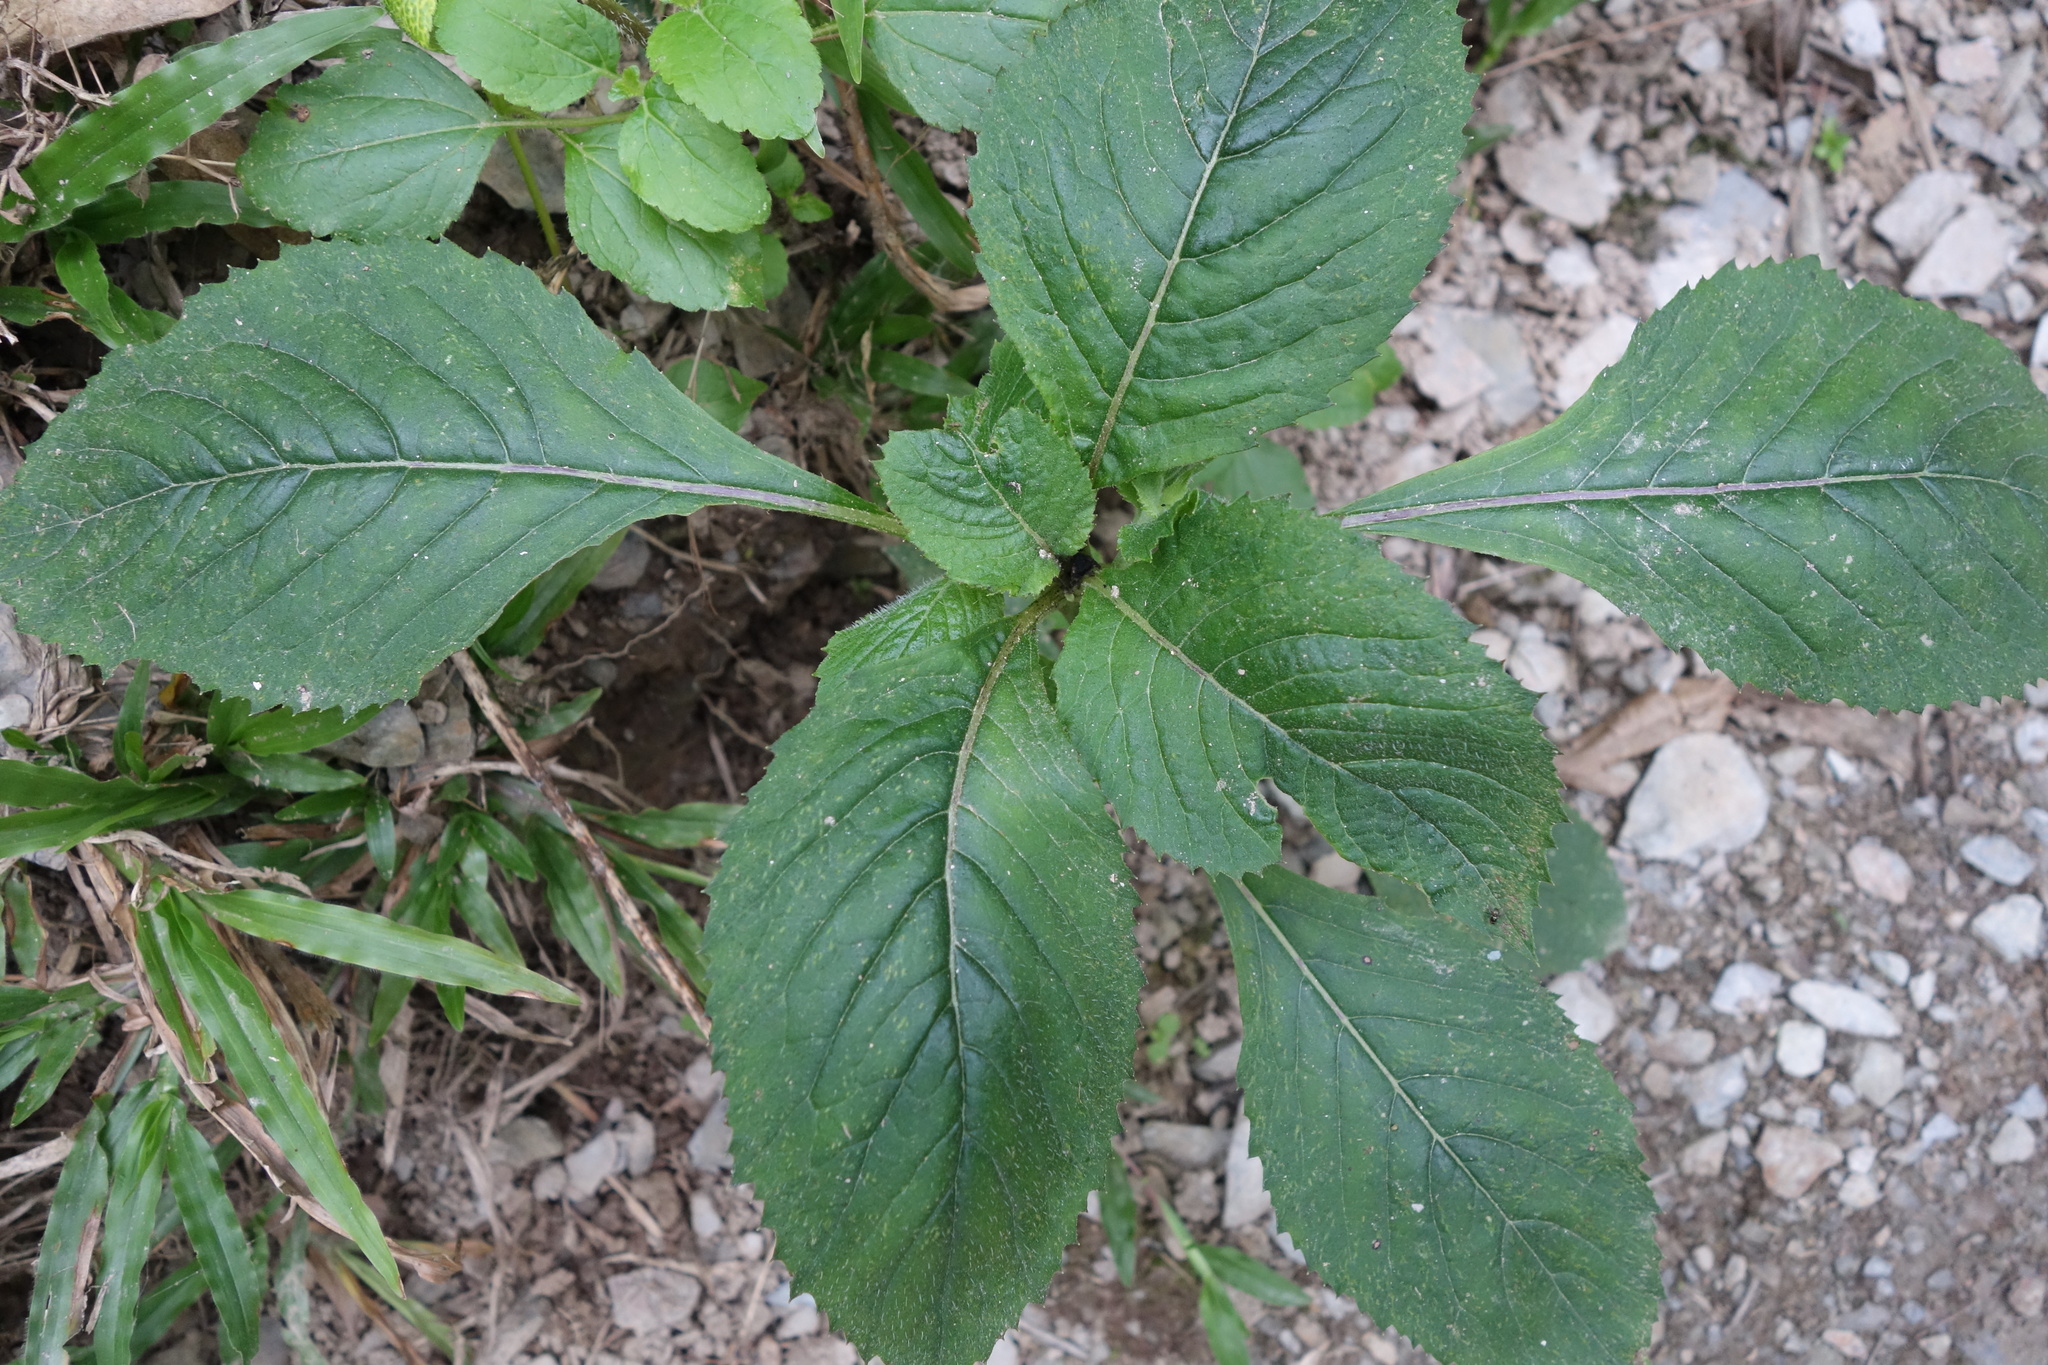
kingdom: Plantae
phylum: Tracheophyta
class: Magnoliopsida
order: Asterales
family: Asteraceae
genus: Crassocephalum
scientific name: Crassocephalum crepidioides
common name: Redflower ragleaf
